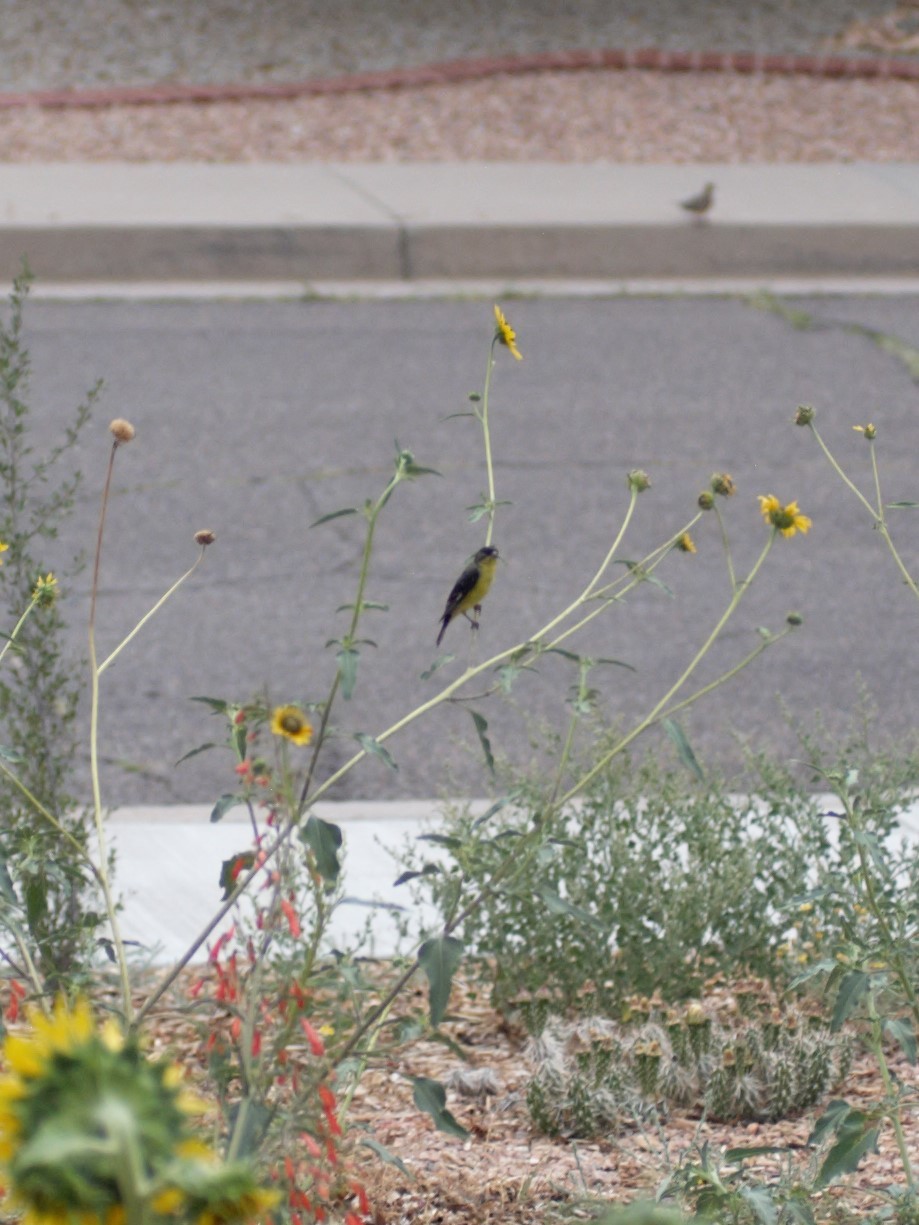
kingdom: Animalia
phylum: Chordata
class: Aves
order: Passeriformes
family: Fringillidae
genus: Spinus
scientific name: Spinus psaltria
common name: Lesser goldfinch
